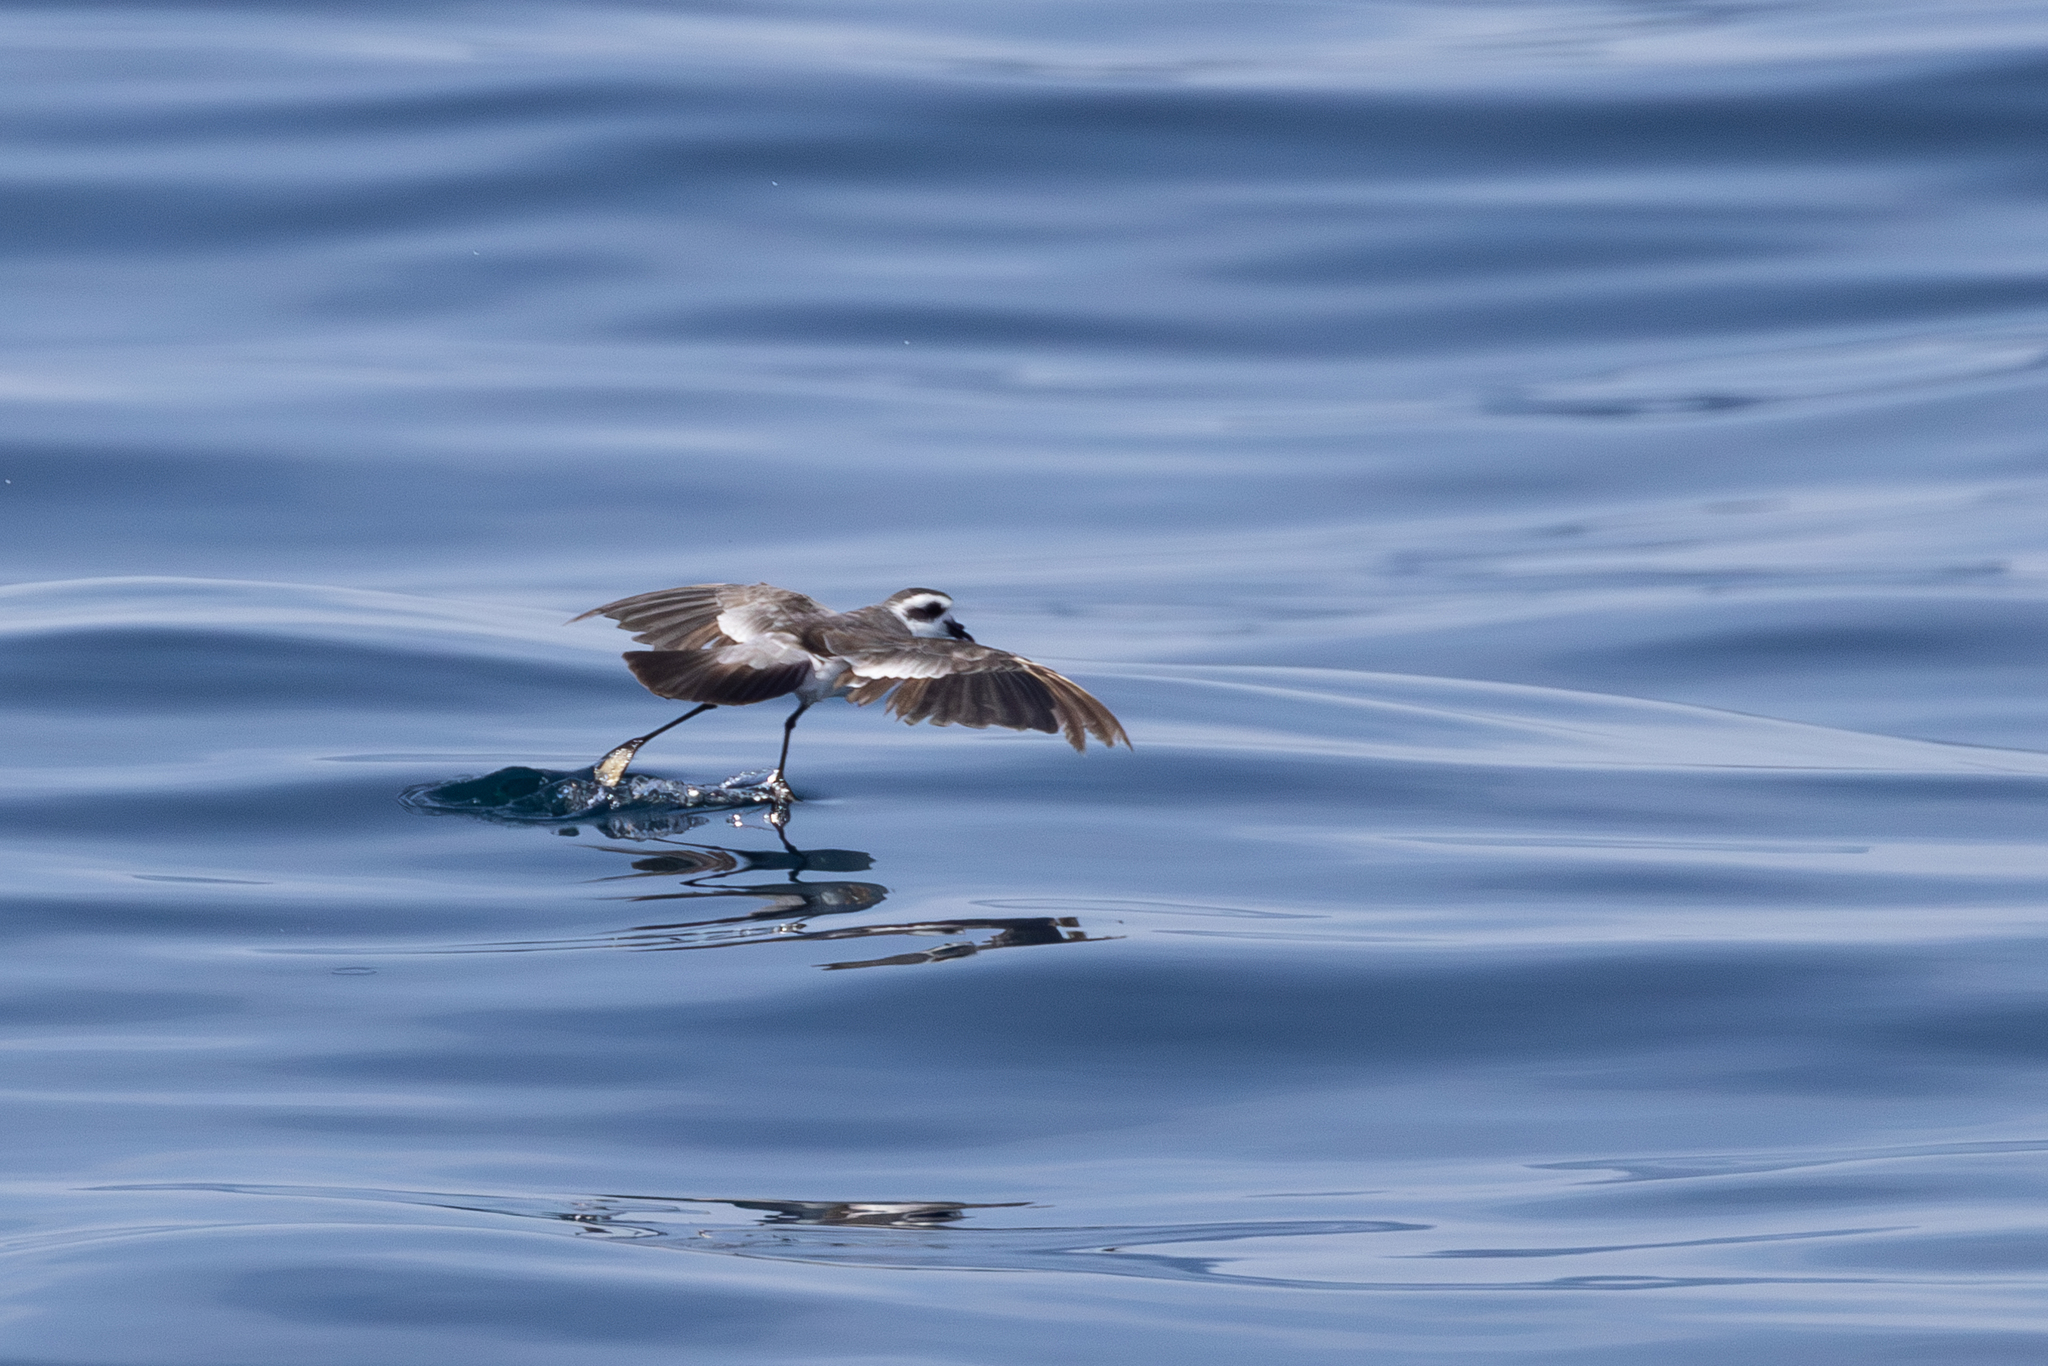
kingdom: Animalia
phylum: Chordata
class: Aves
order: Procellariiformes
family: Hydrobatidae
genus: Pelagodroma
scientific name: Pelagodroma marina
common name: White-faced storm-petrel
